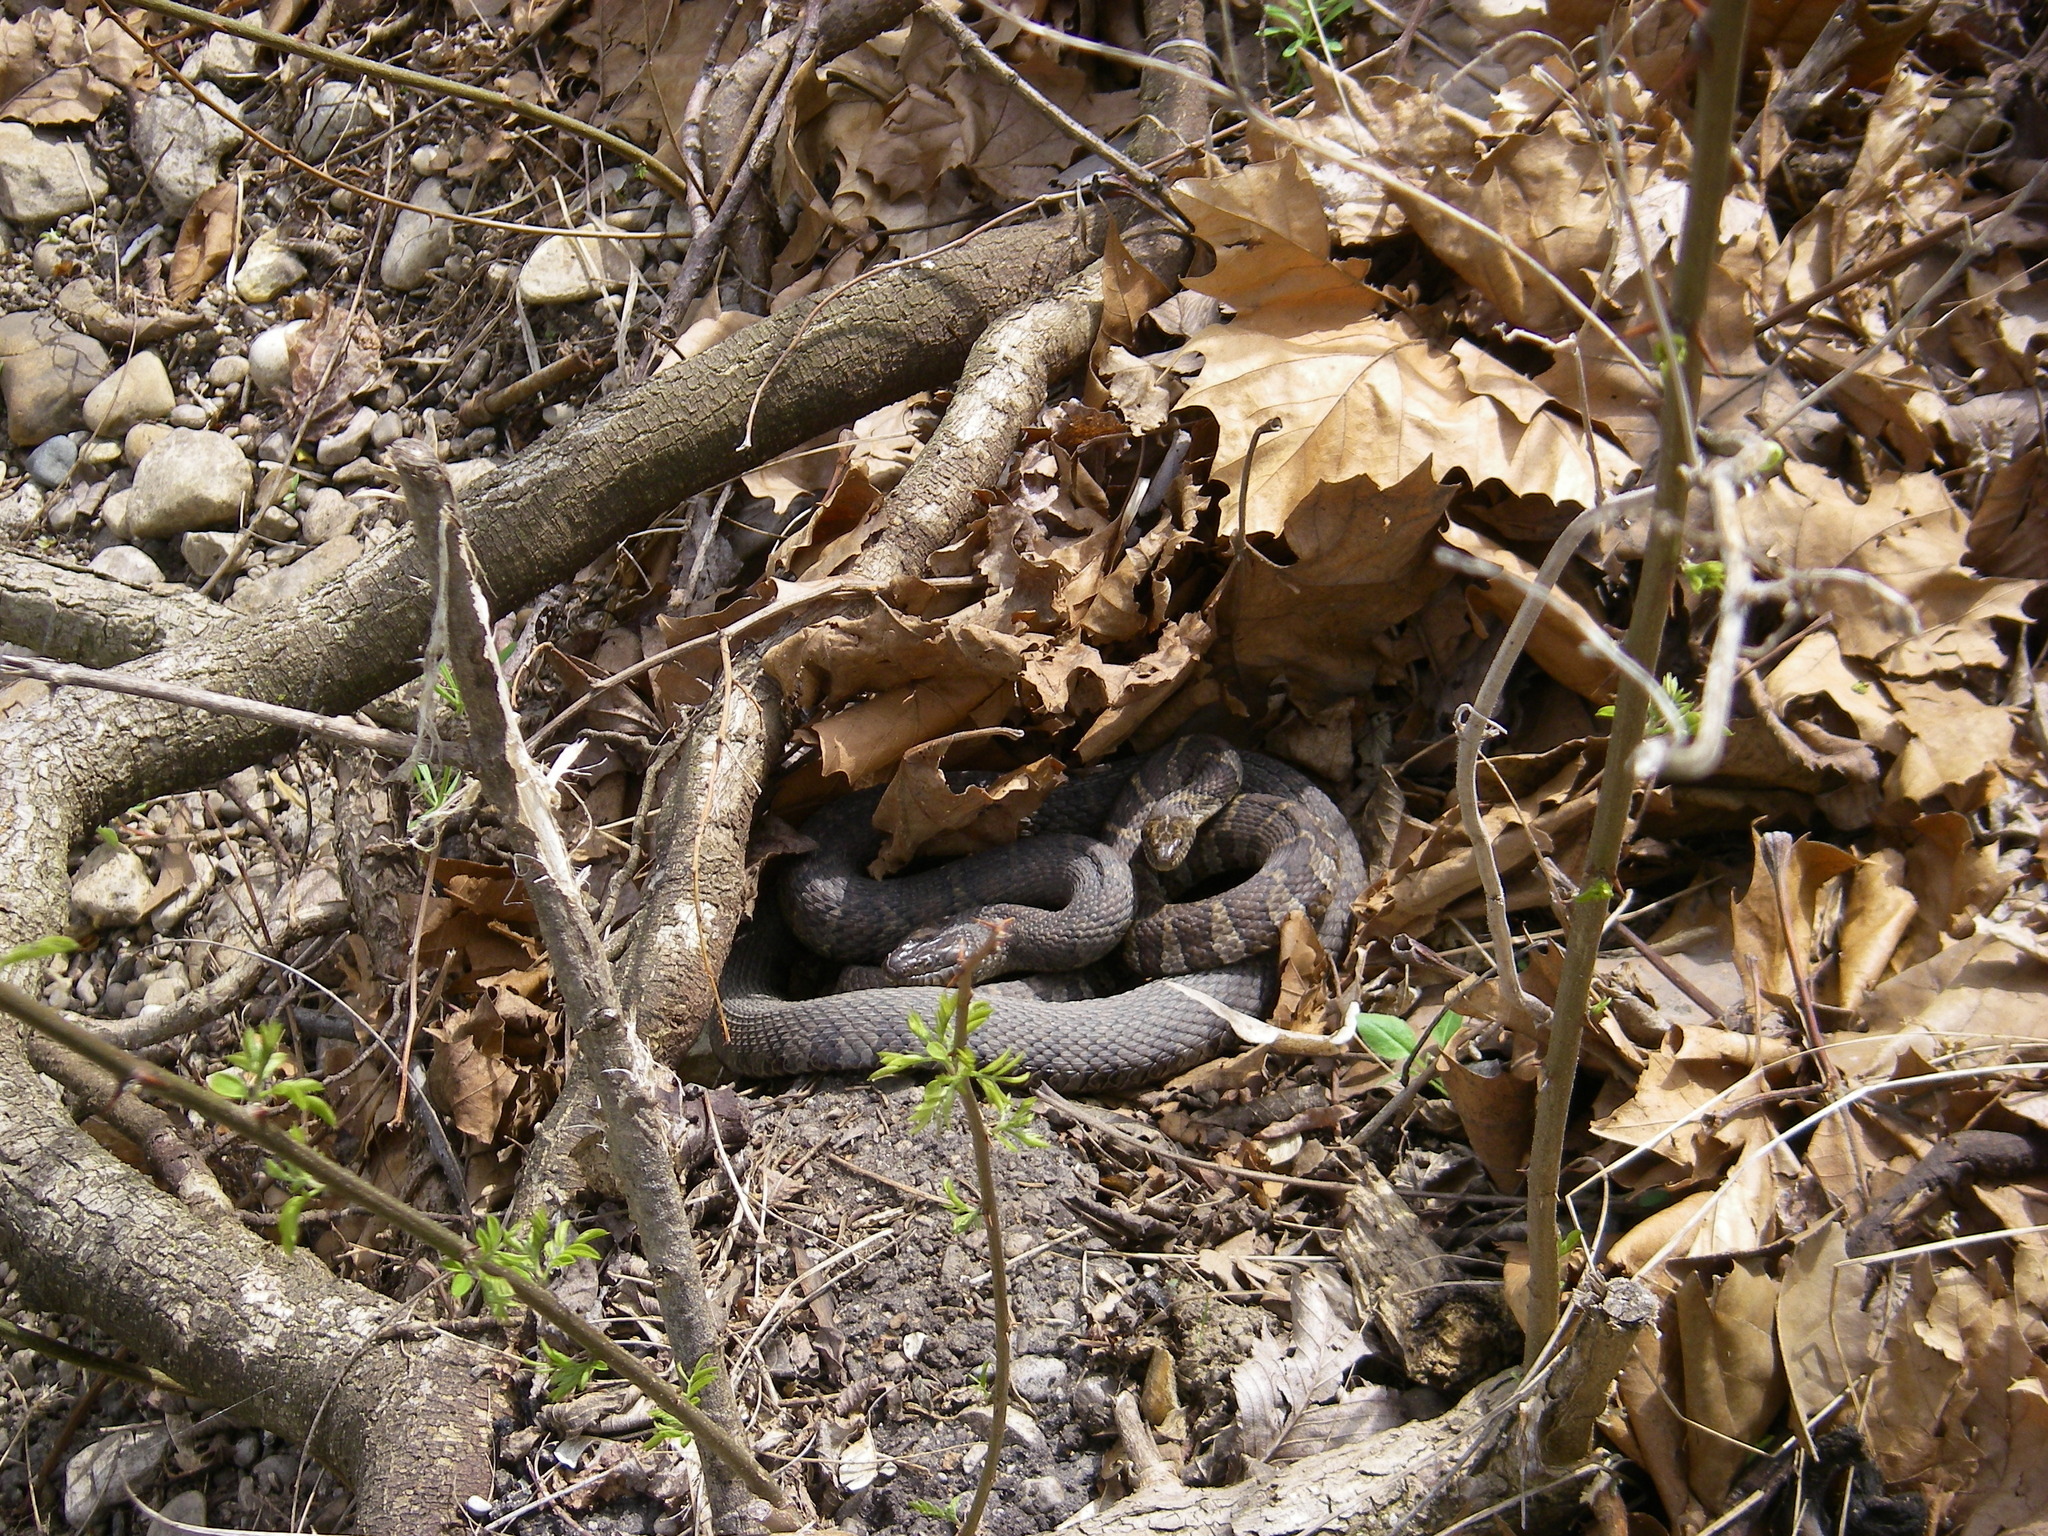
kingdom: Animalia
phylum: Chordata
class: Squamata
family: Colubridae
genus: Nerodia
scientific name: Nerodia sipedon
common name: Northern water snake
